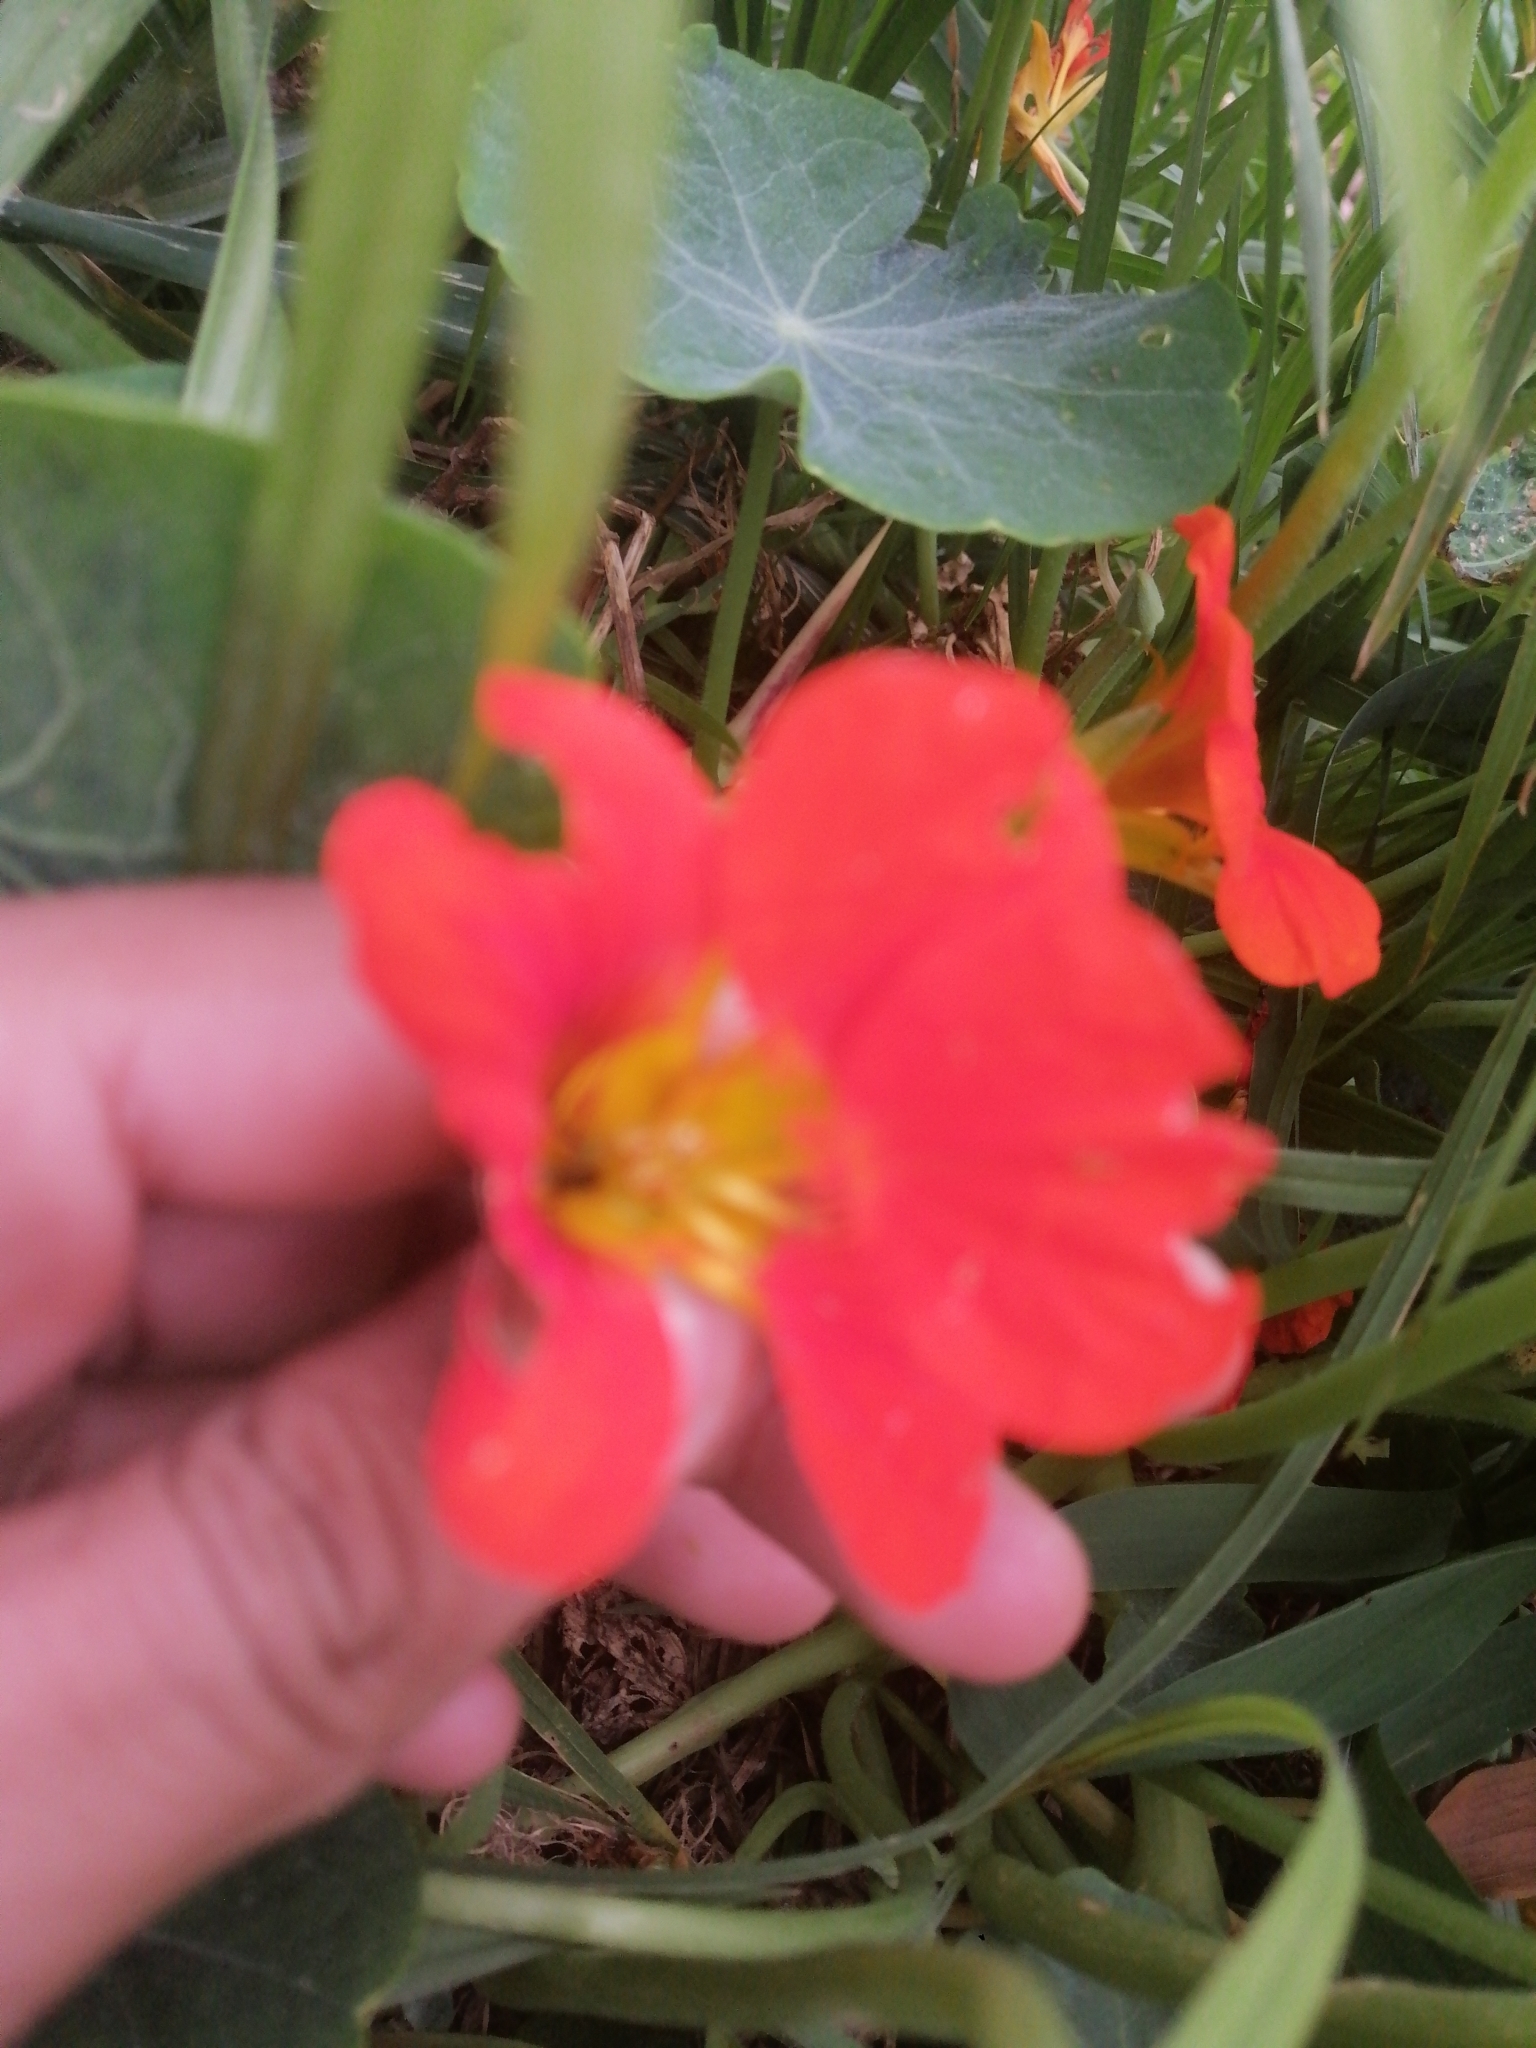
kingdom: Plantae
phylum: Tracheophyta
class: Magnoliopsida
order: Brassicales
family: Tropaeolaceae
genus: Tropaeolum
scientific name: Tropaeolum majus
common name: Nasturtium
